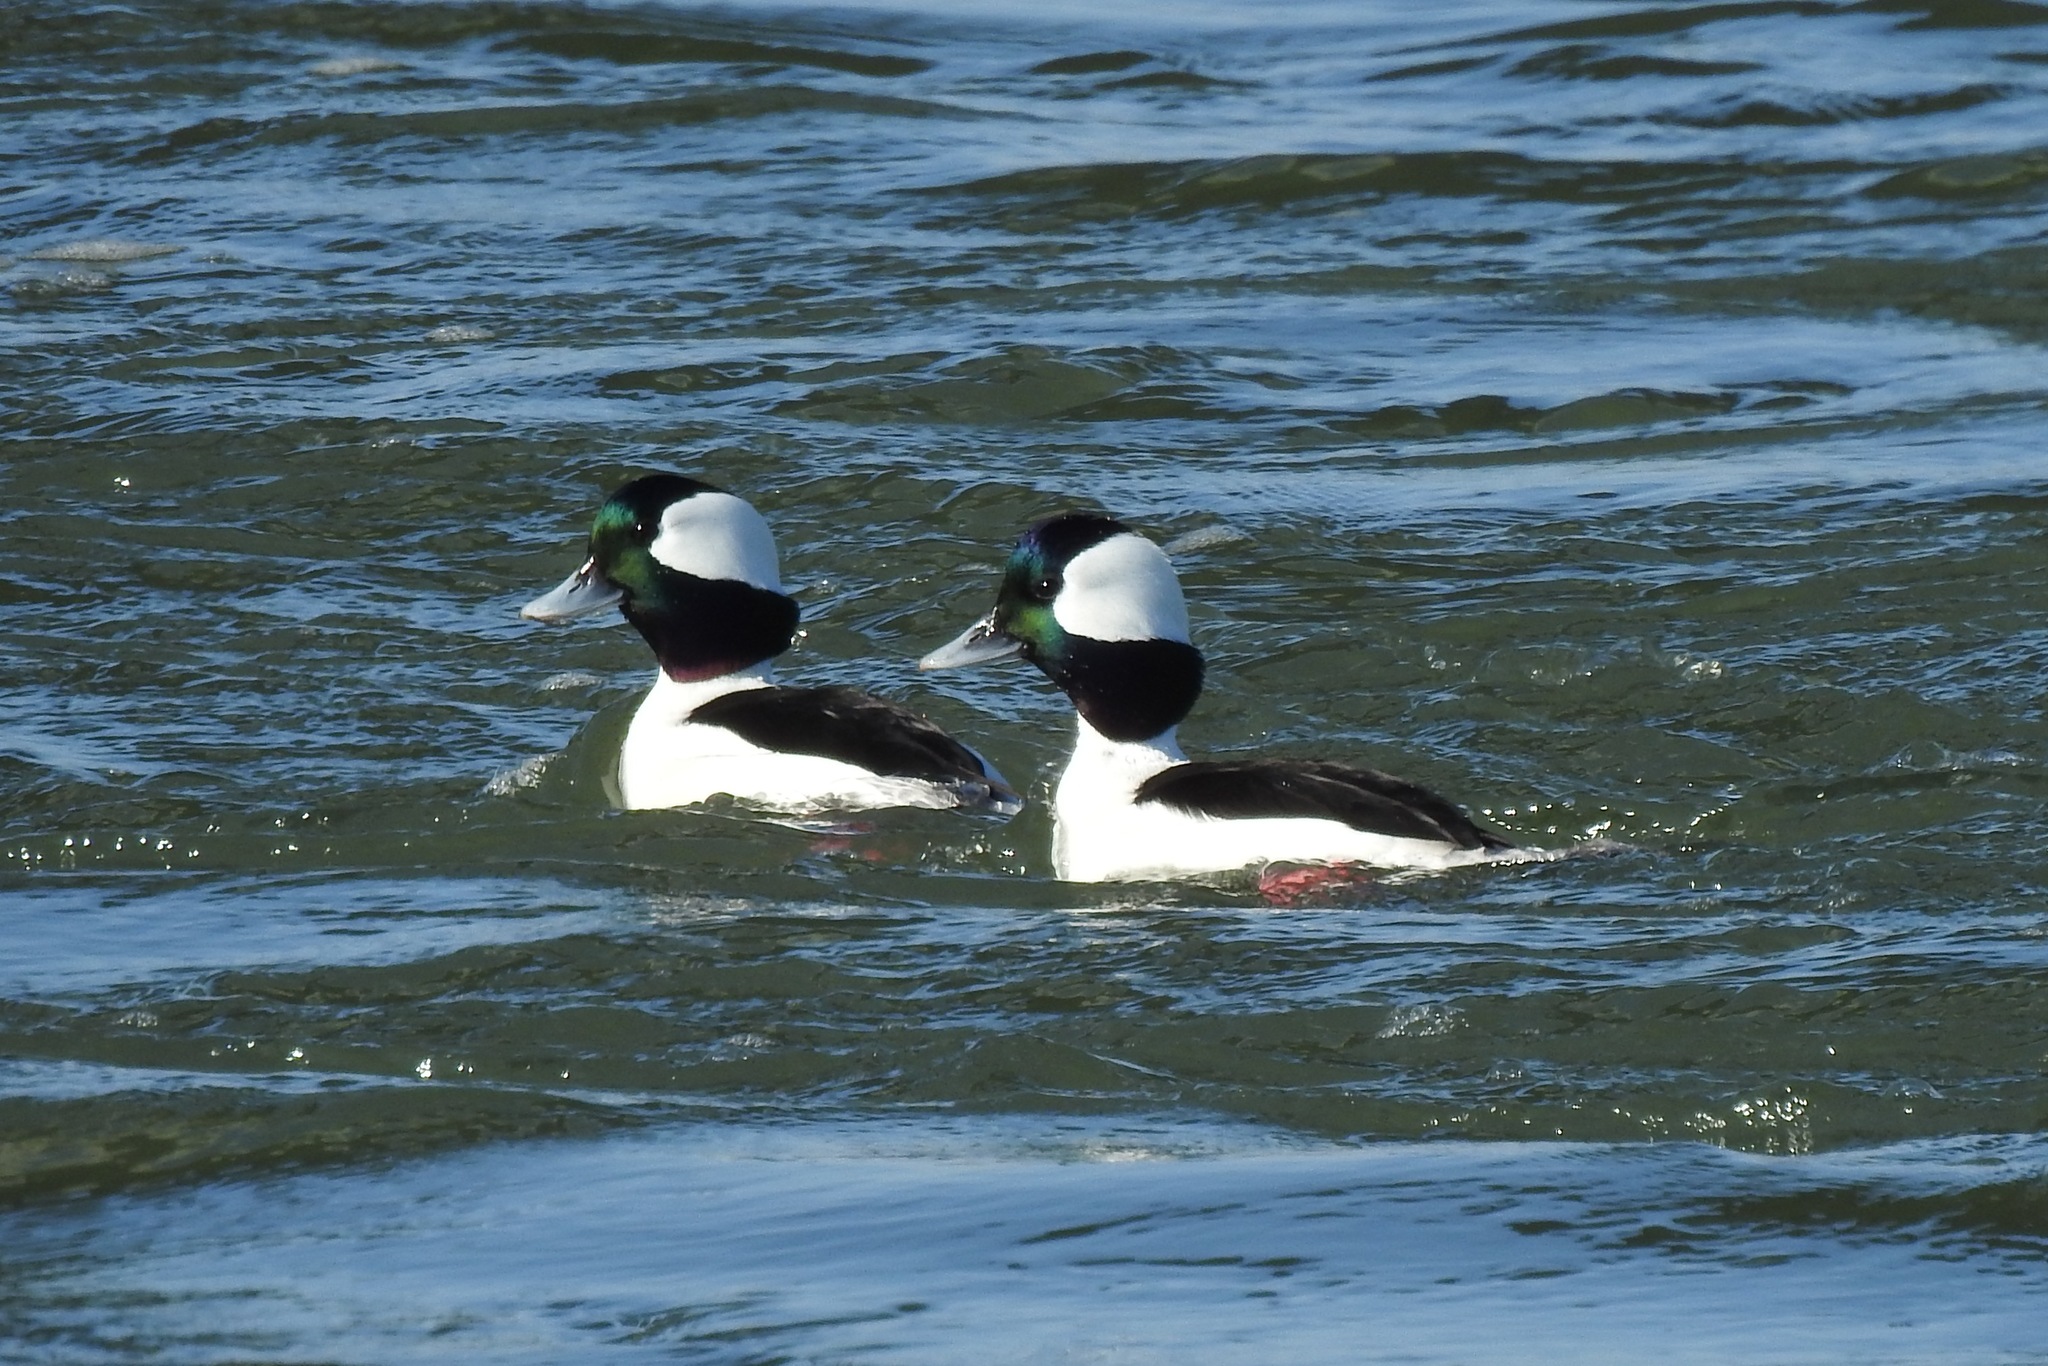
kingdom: Animalia
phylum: Chordata
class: Aves
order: Anseriformes
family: Anatidae
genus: Bucephala
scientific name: Bucephala albeola
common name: Bufflehead
